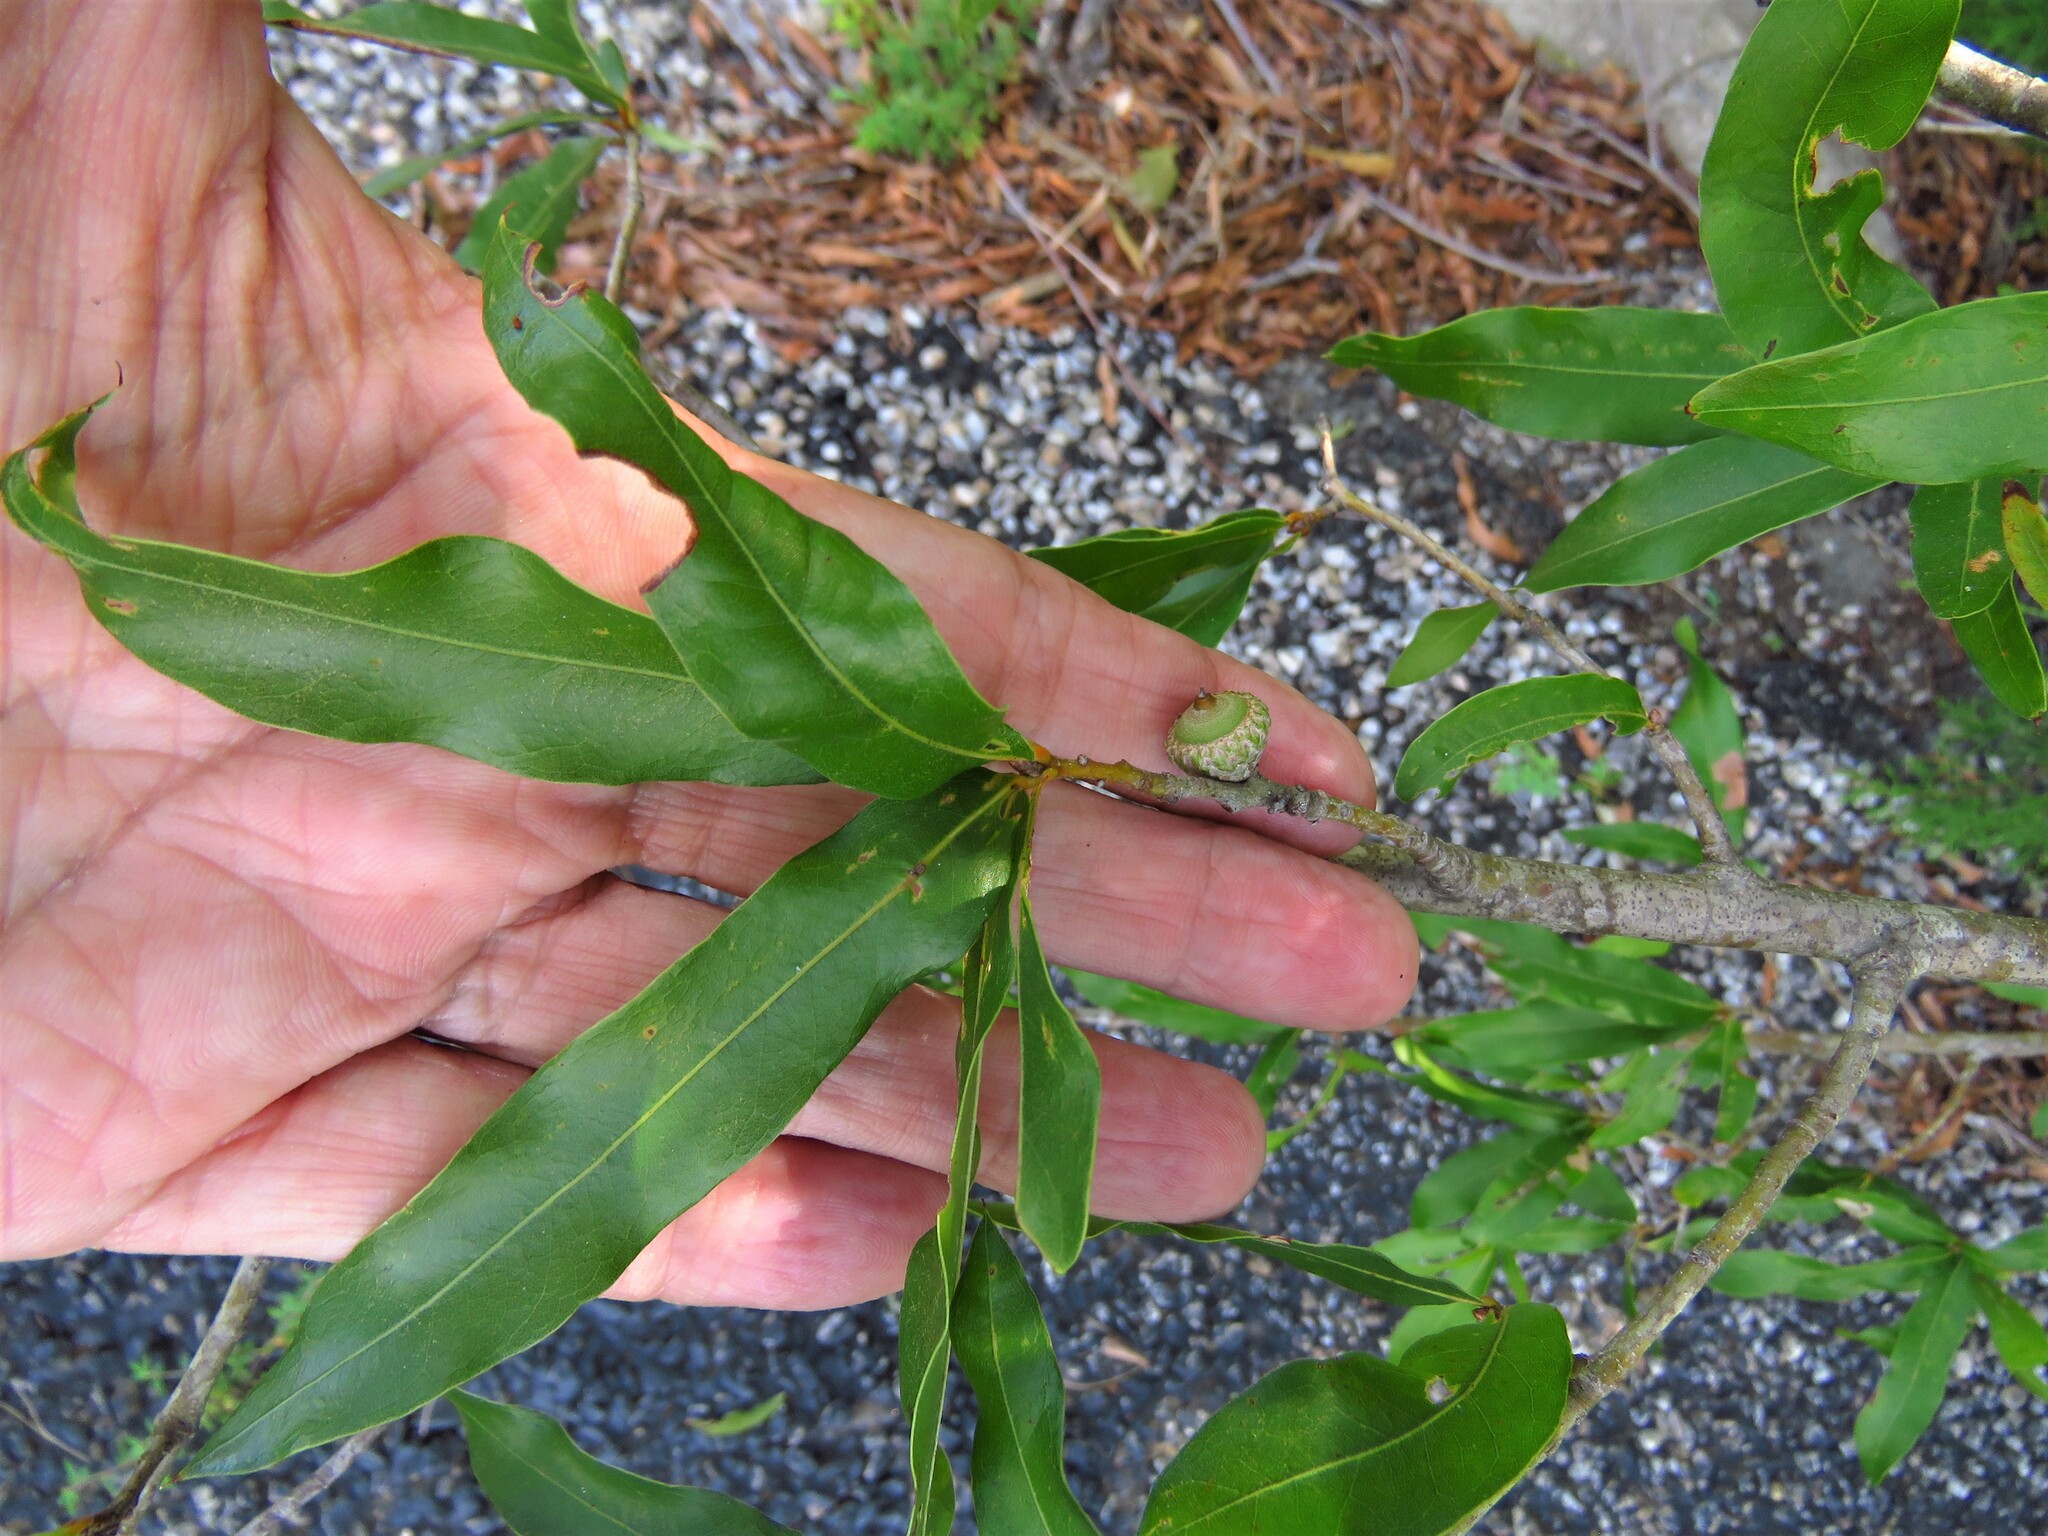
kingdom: Plantae
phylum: Tracheophyta
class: Magnoliopsida
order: Fagales
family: Fagaceae
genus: Quercus
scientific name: Quercus phellos
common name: Willow oak
